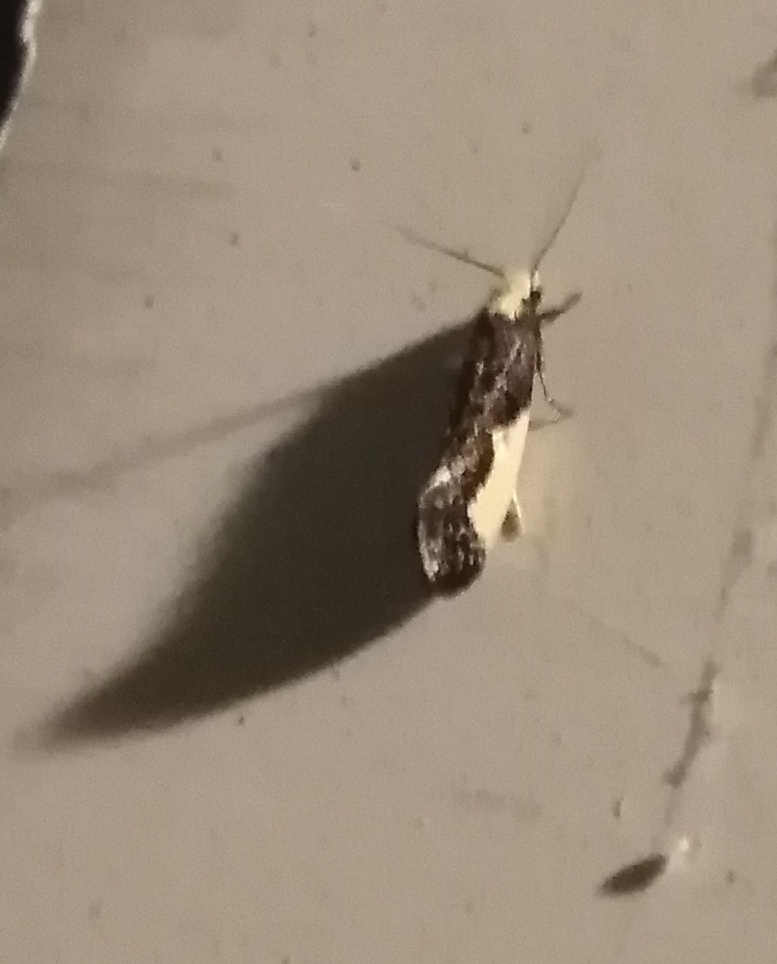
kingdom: Animalia
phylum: Arthropoda
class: Insecta
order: Lepidoptera
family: Tineidae
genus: Monopis
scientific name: Monopis monachella
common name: Moth
